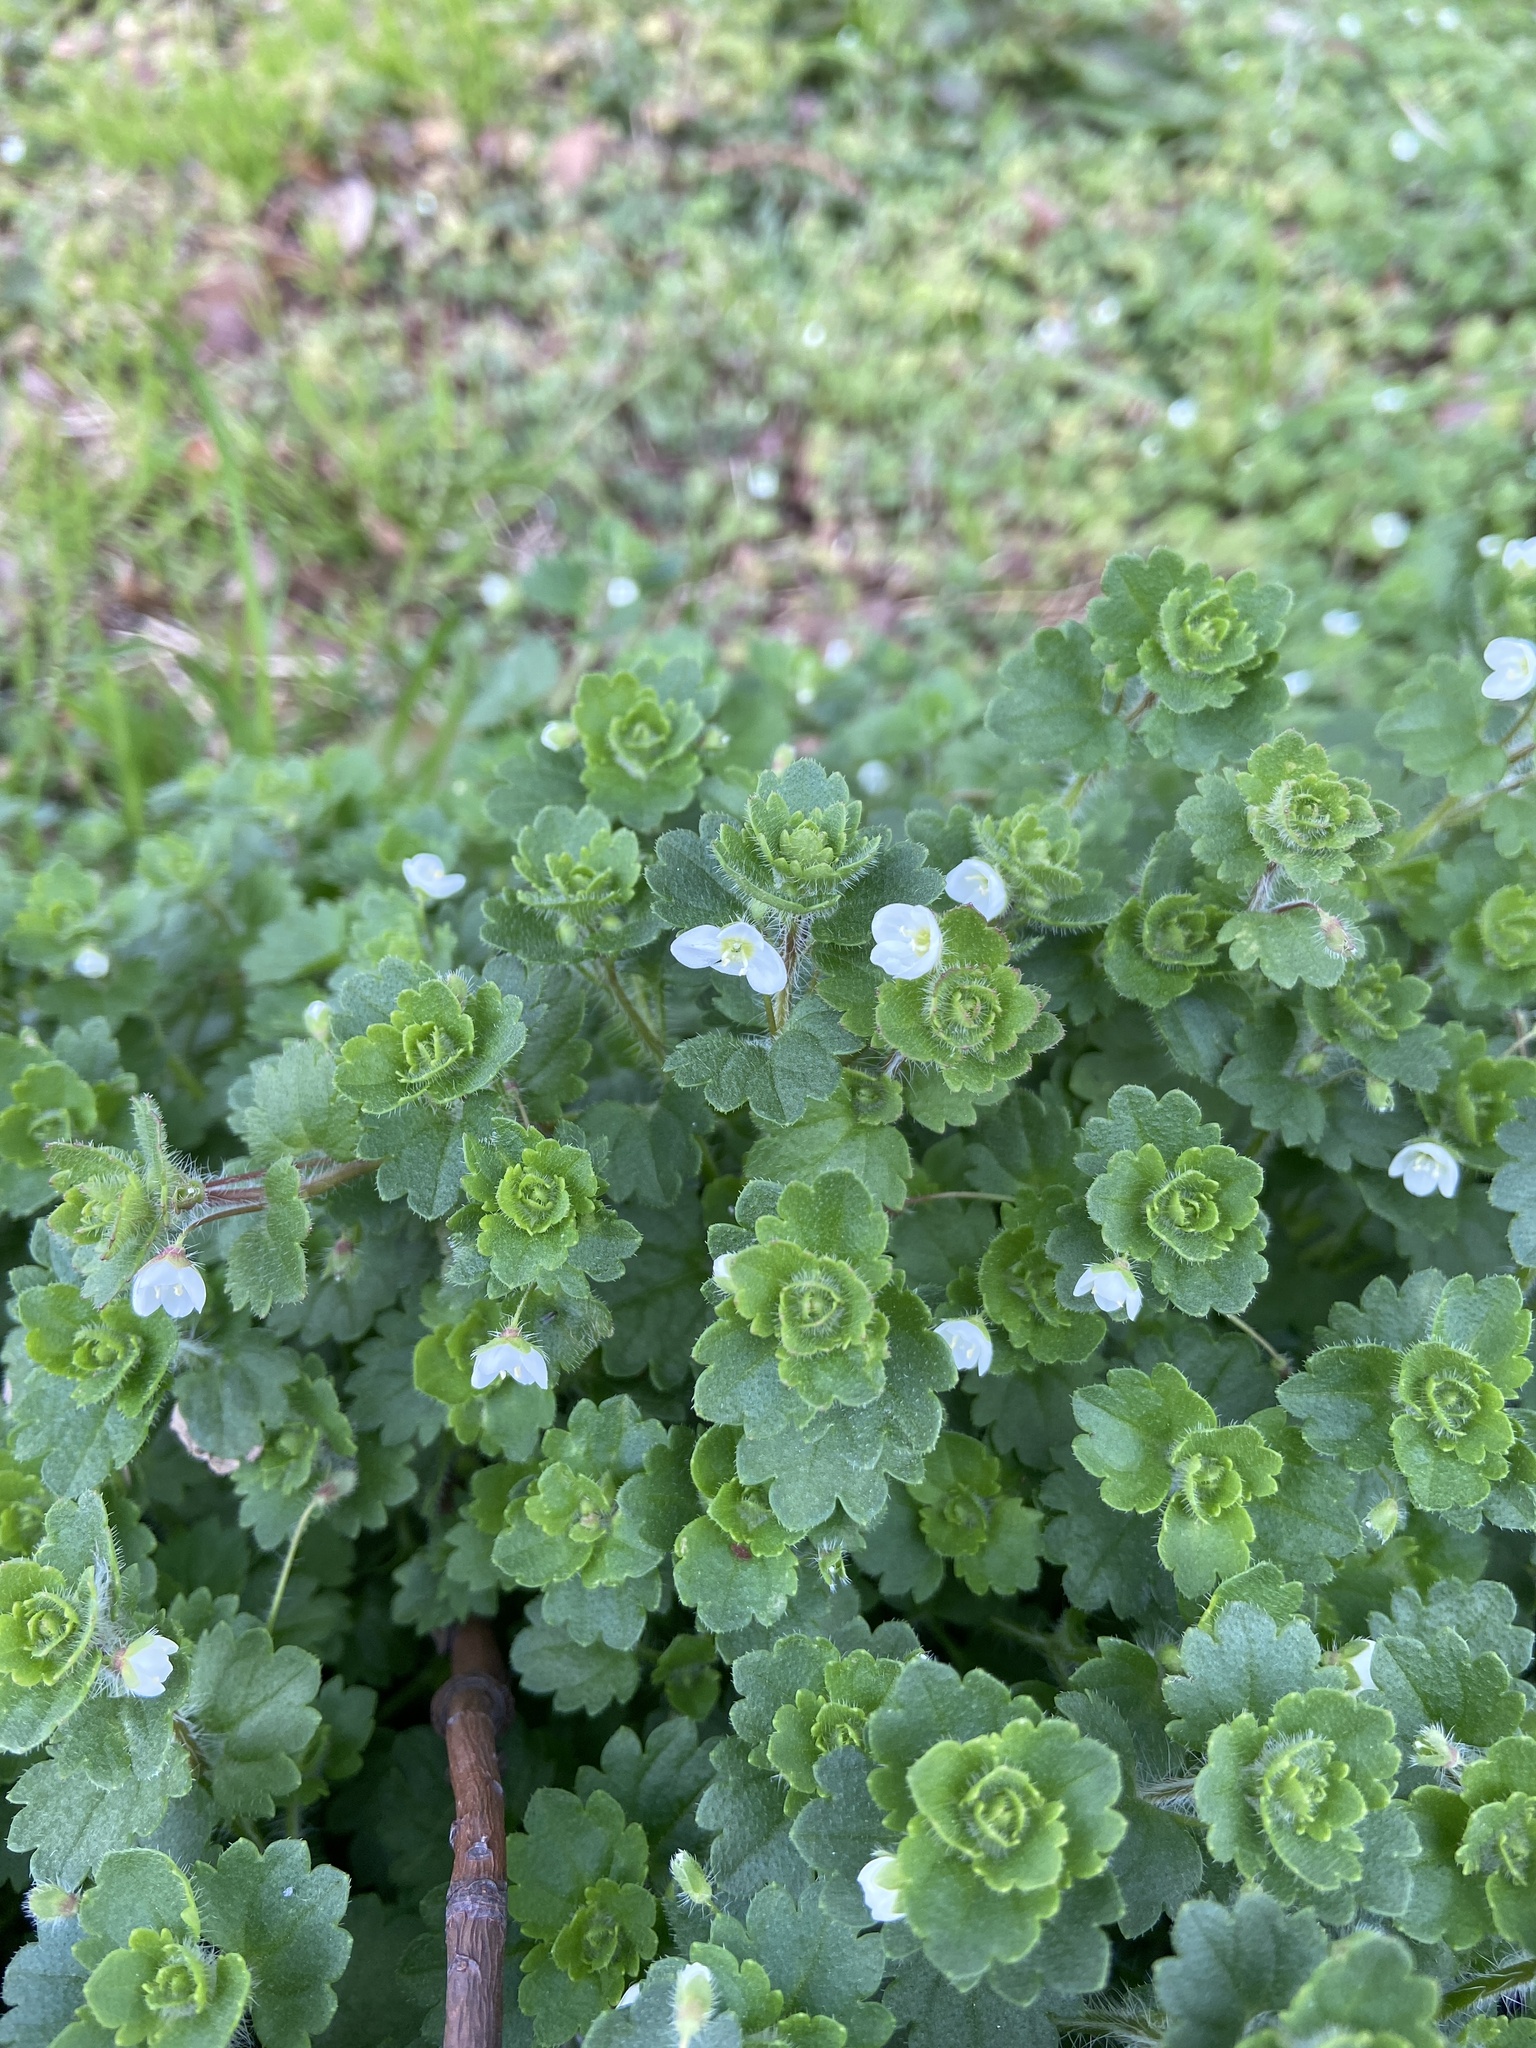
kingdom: Plantae
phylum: Tracheophyta
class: Magnoliopsida
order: Lamiales
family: Plantaginaceae
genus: Veronica
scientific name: Veronica cymbalaria
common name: Pale speedwell
